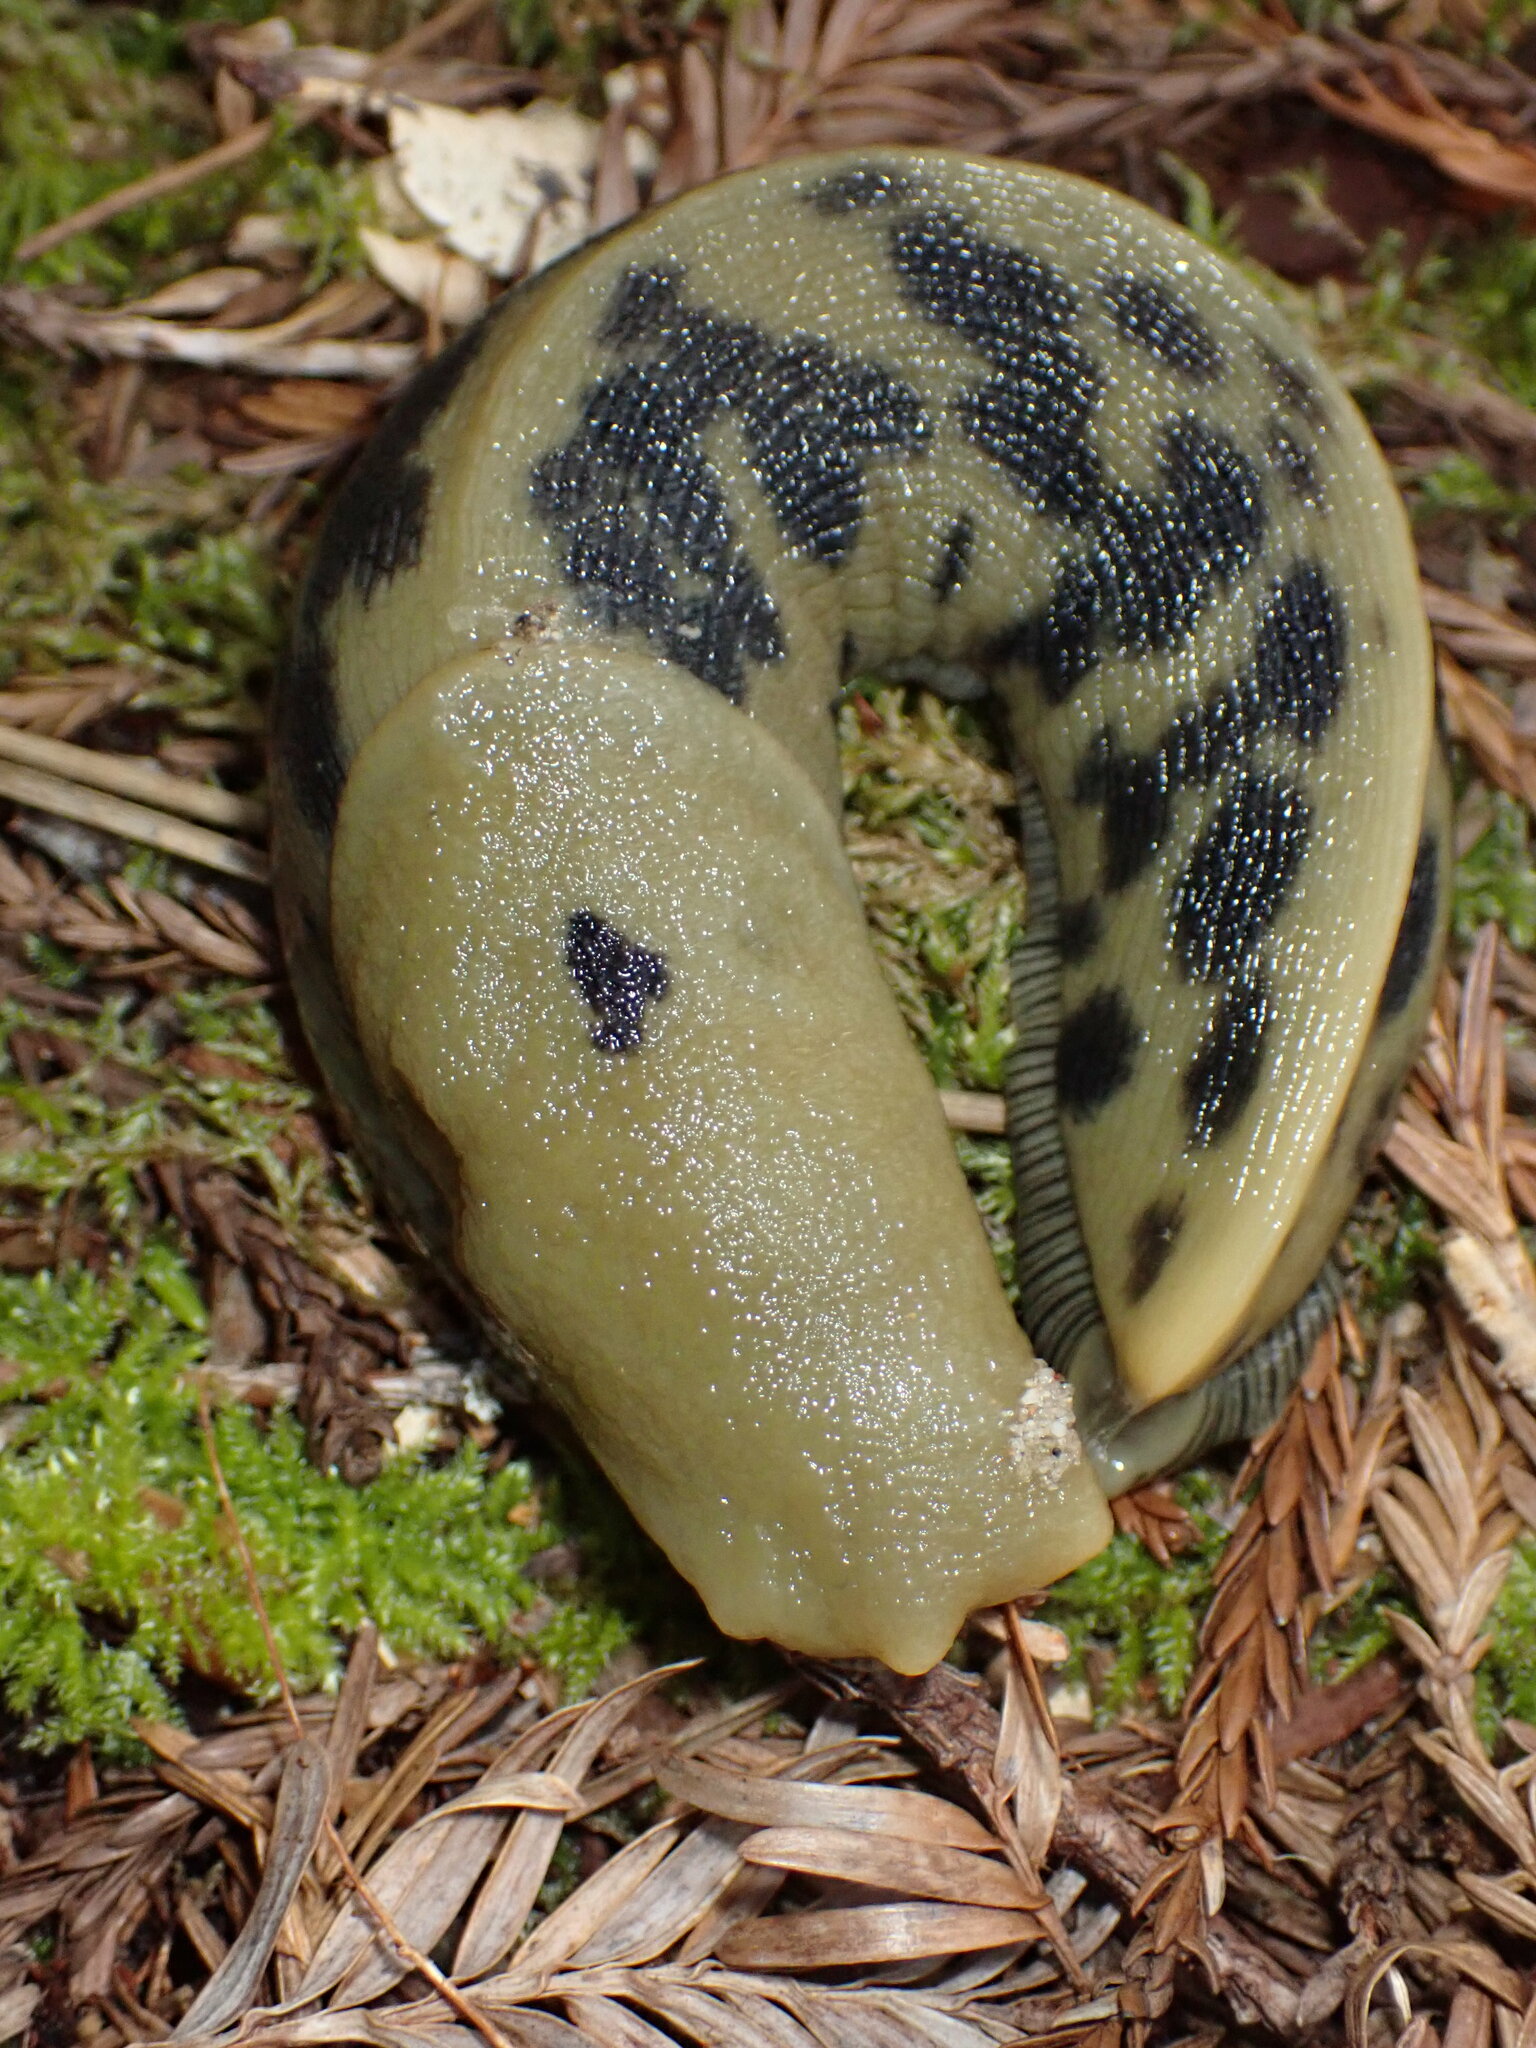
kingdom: Animalia
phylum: Mollusca
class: Gastropoda
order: Stylommatophora
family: Ariolimacidae
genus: Ariolimax
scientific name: Ariolimax buttoni
